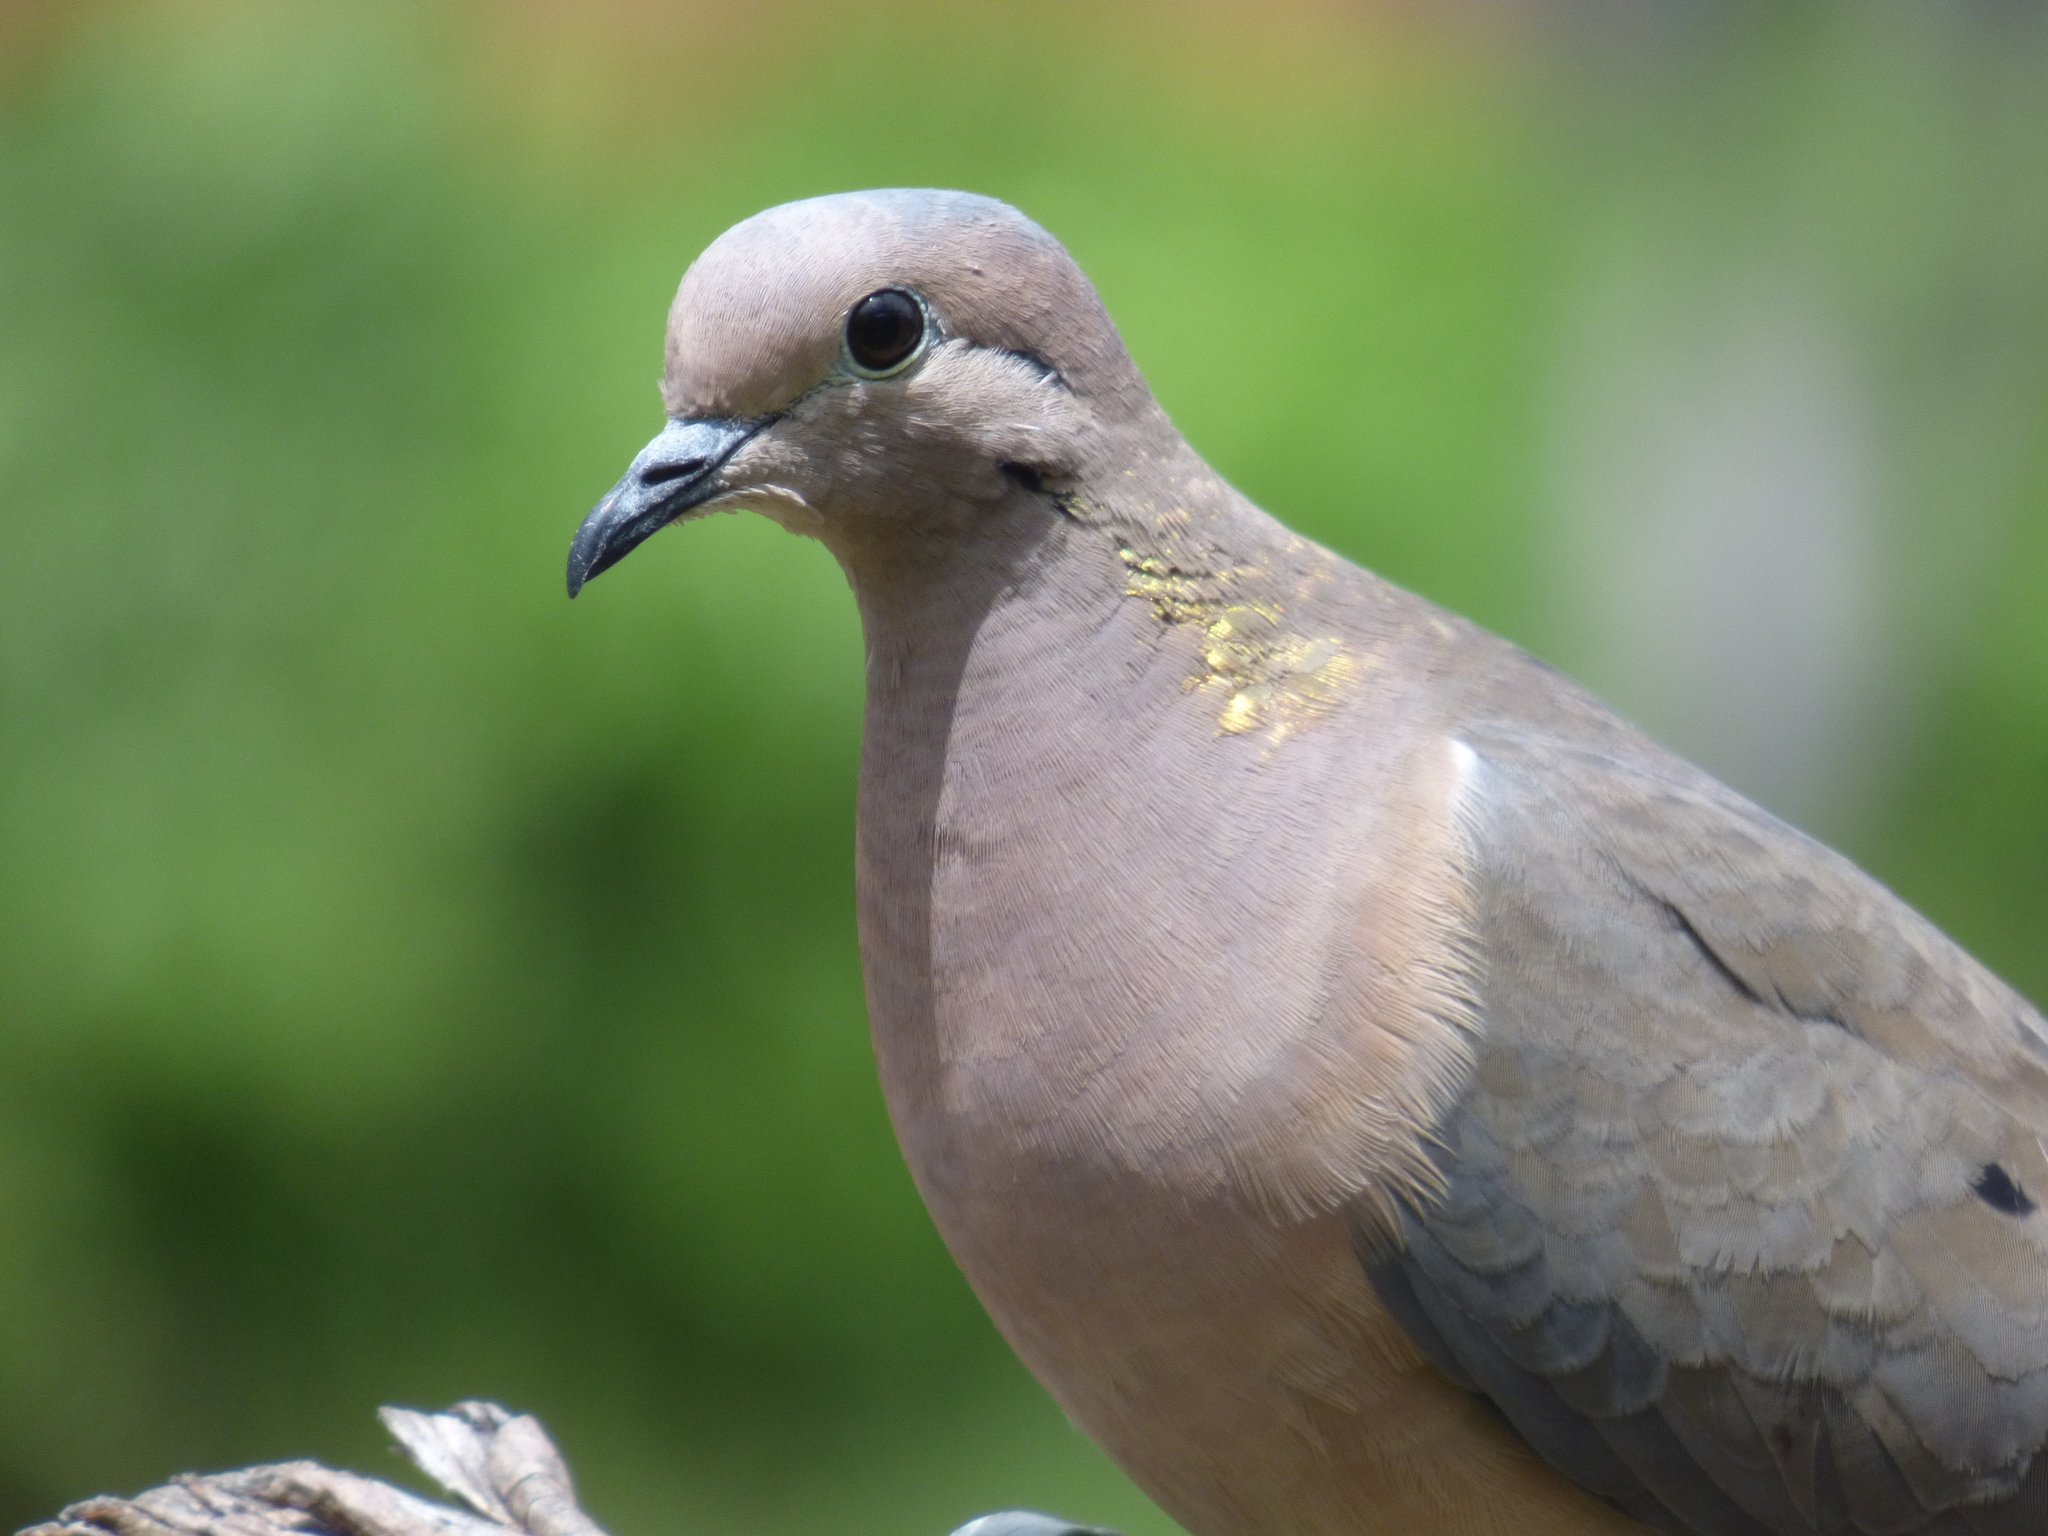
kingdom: Animalia
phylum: Chordata
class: Aves
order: Columbiformes
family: Columbidae
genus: Zenaida
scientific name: Zenaida auriculata
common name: Eared dove
